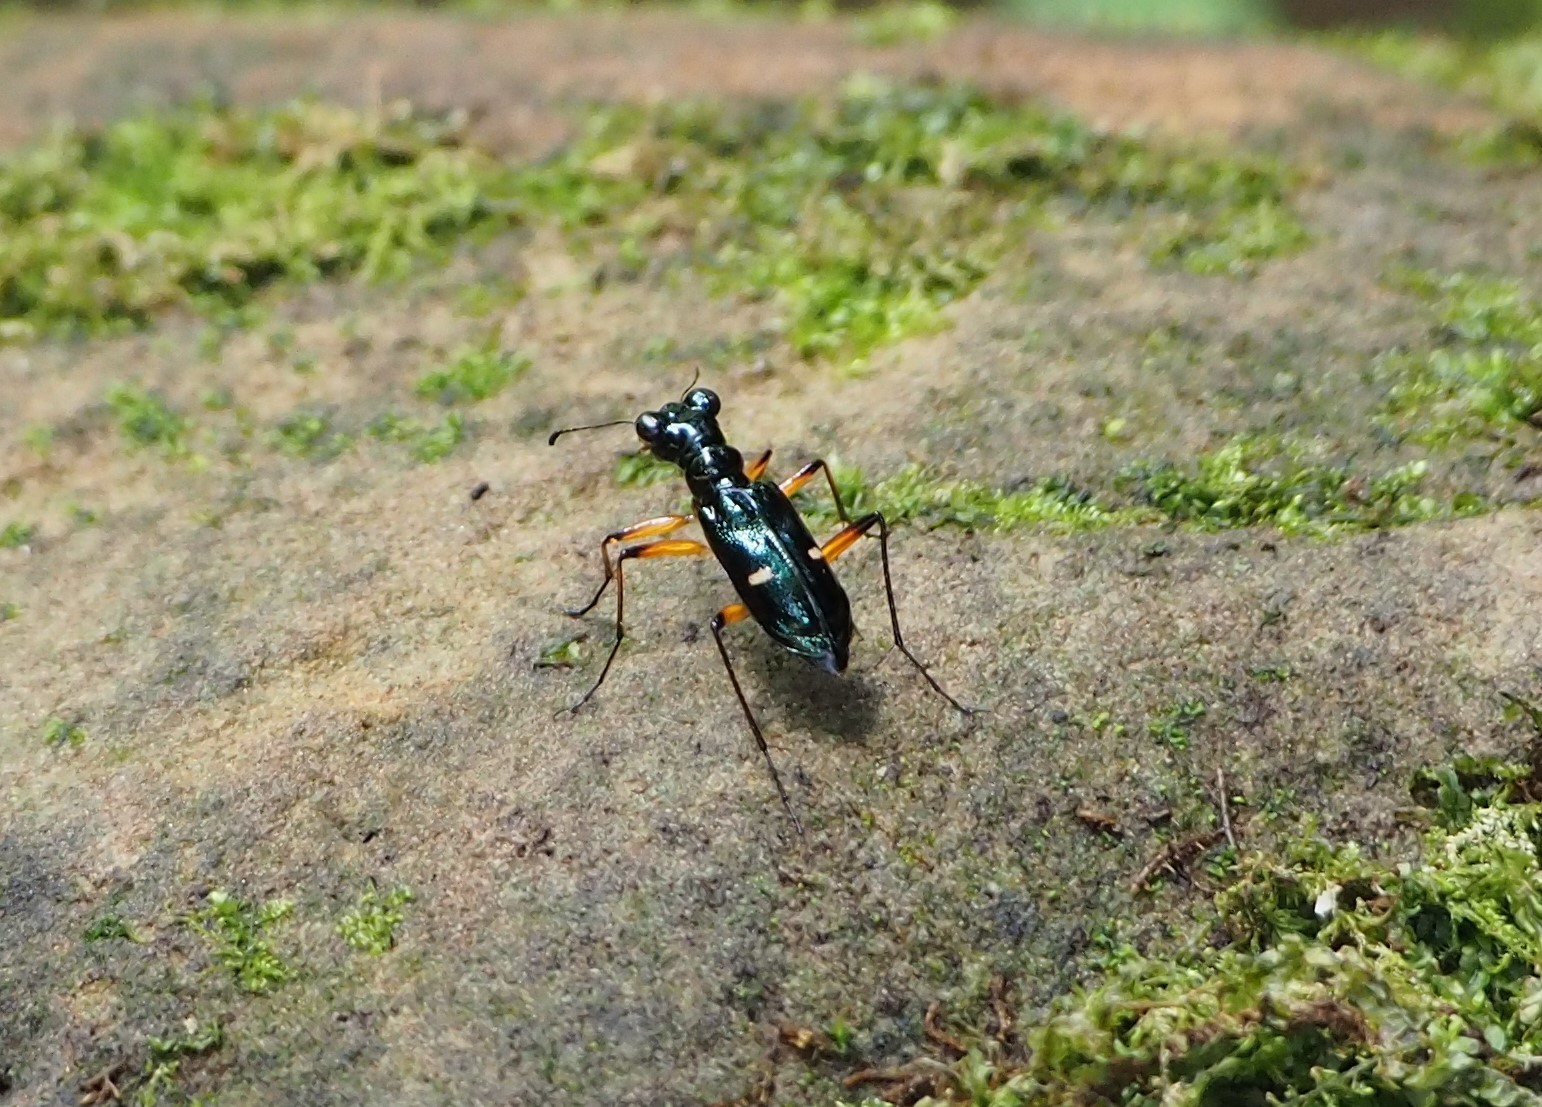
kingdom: Animalia
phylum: Arthropoda
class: Insecta
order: Coleoptera
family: Carabidae
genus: Therates
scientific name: Therates fruhstorferi
